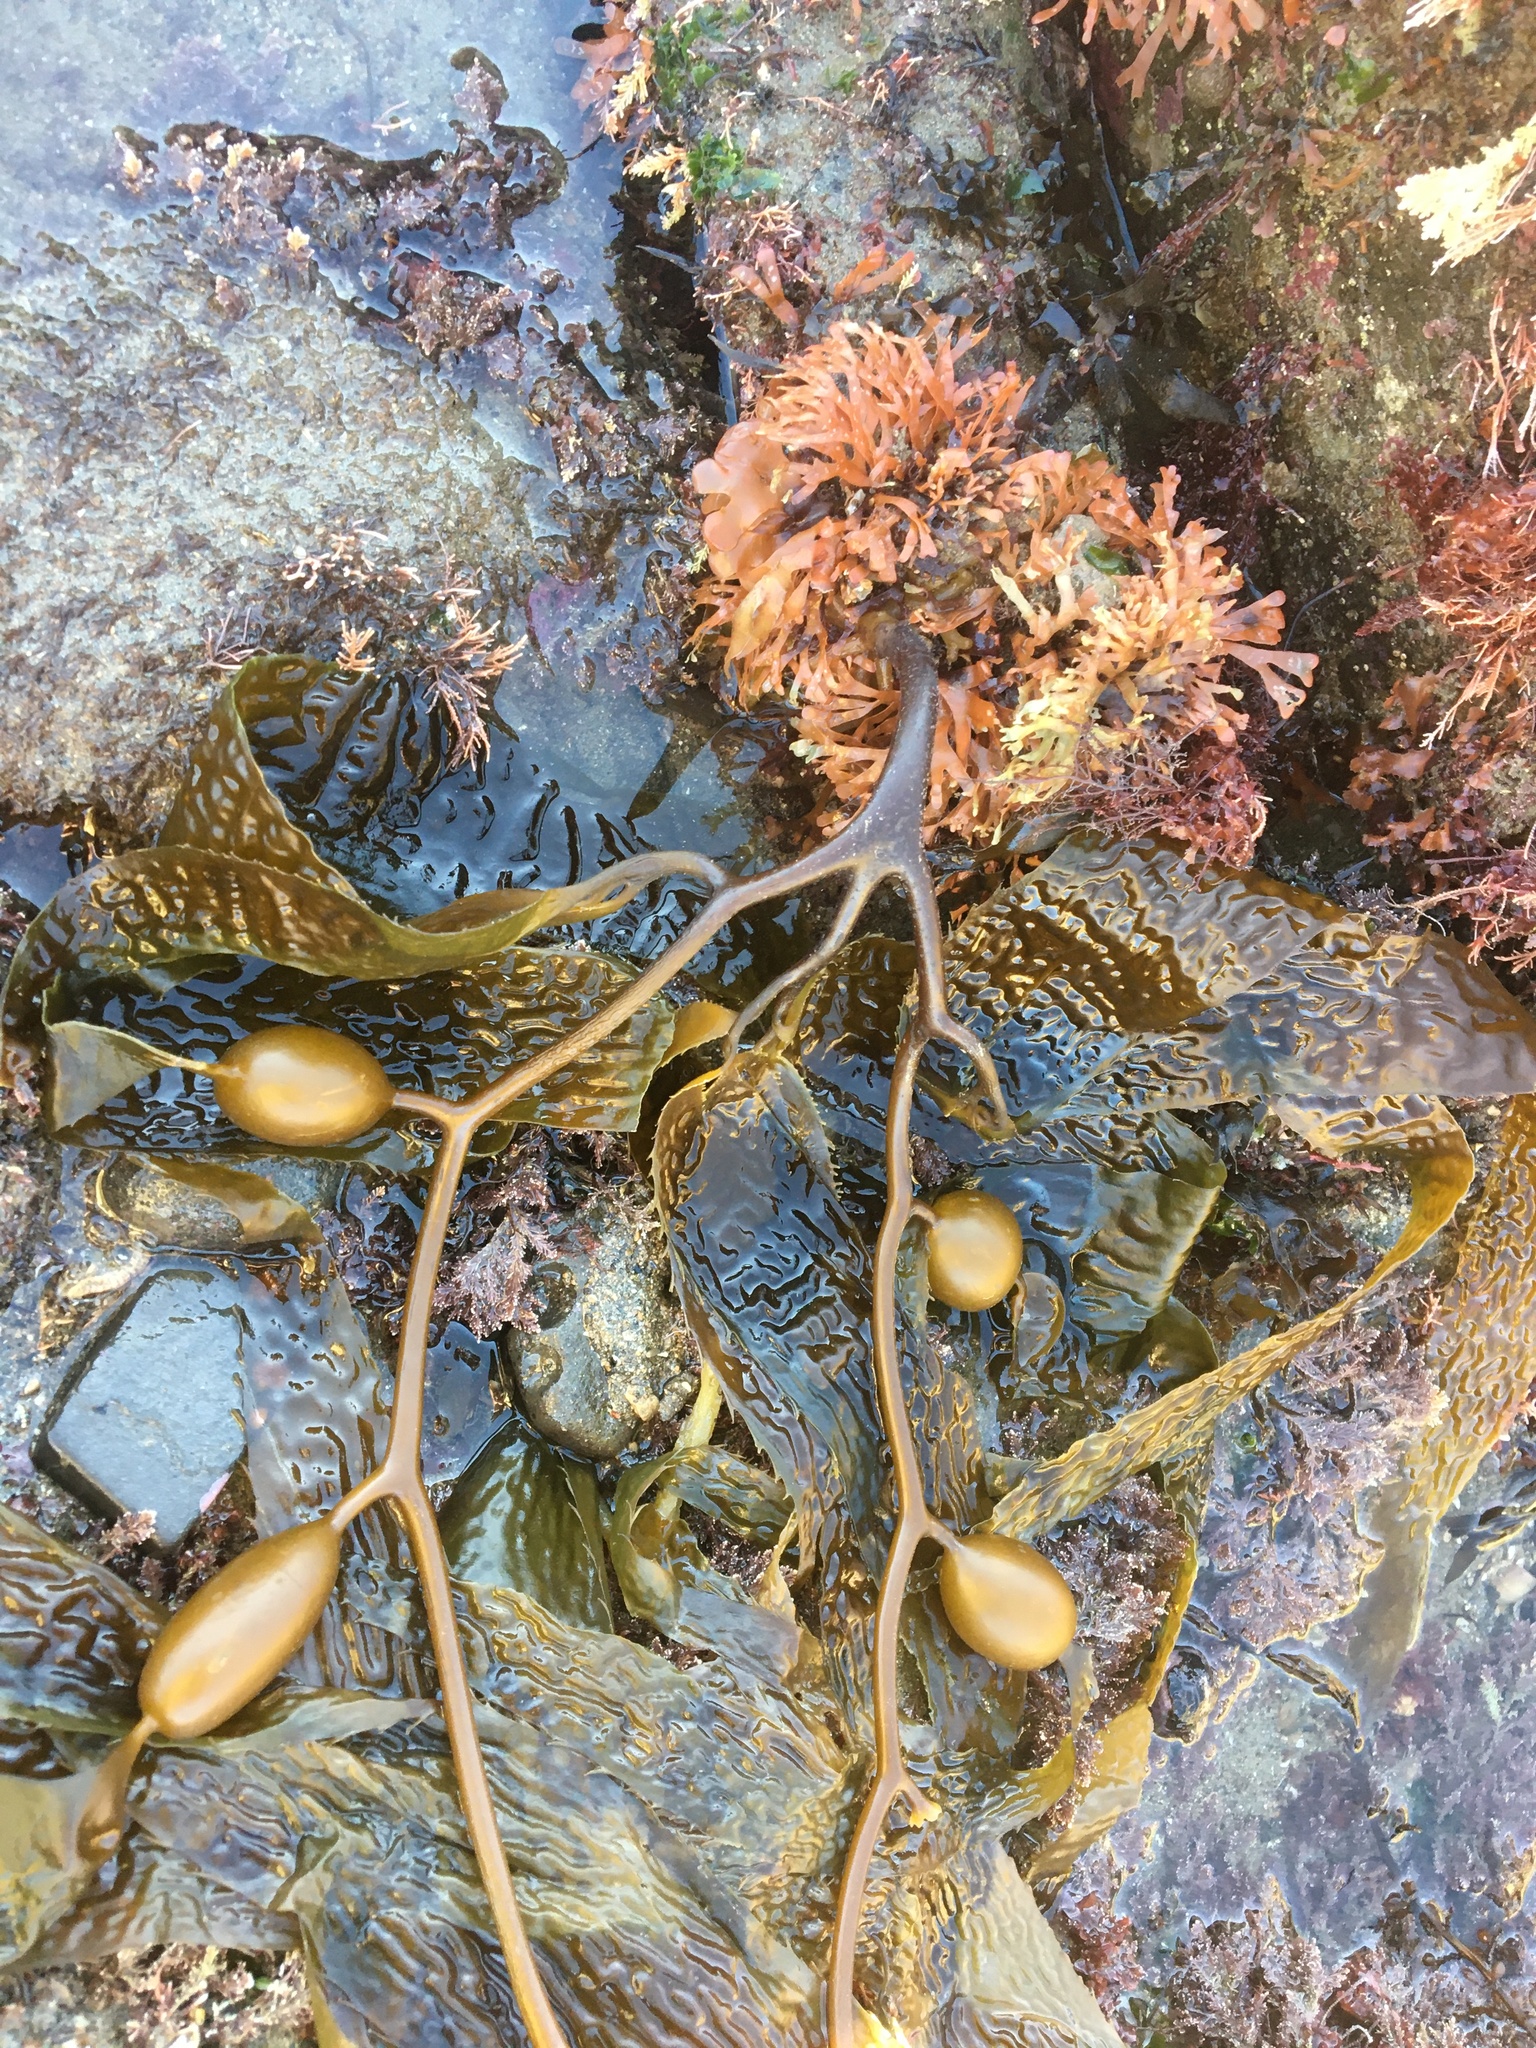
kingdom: Chromista
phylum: Ochrophyta
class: Phaeophyceae
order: Laminariales
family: Laminariaceae
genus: Macrocystis
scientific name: Macrocystis pyrifera
